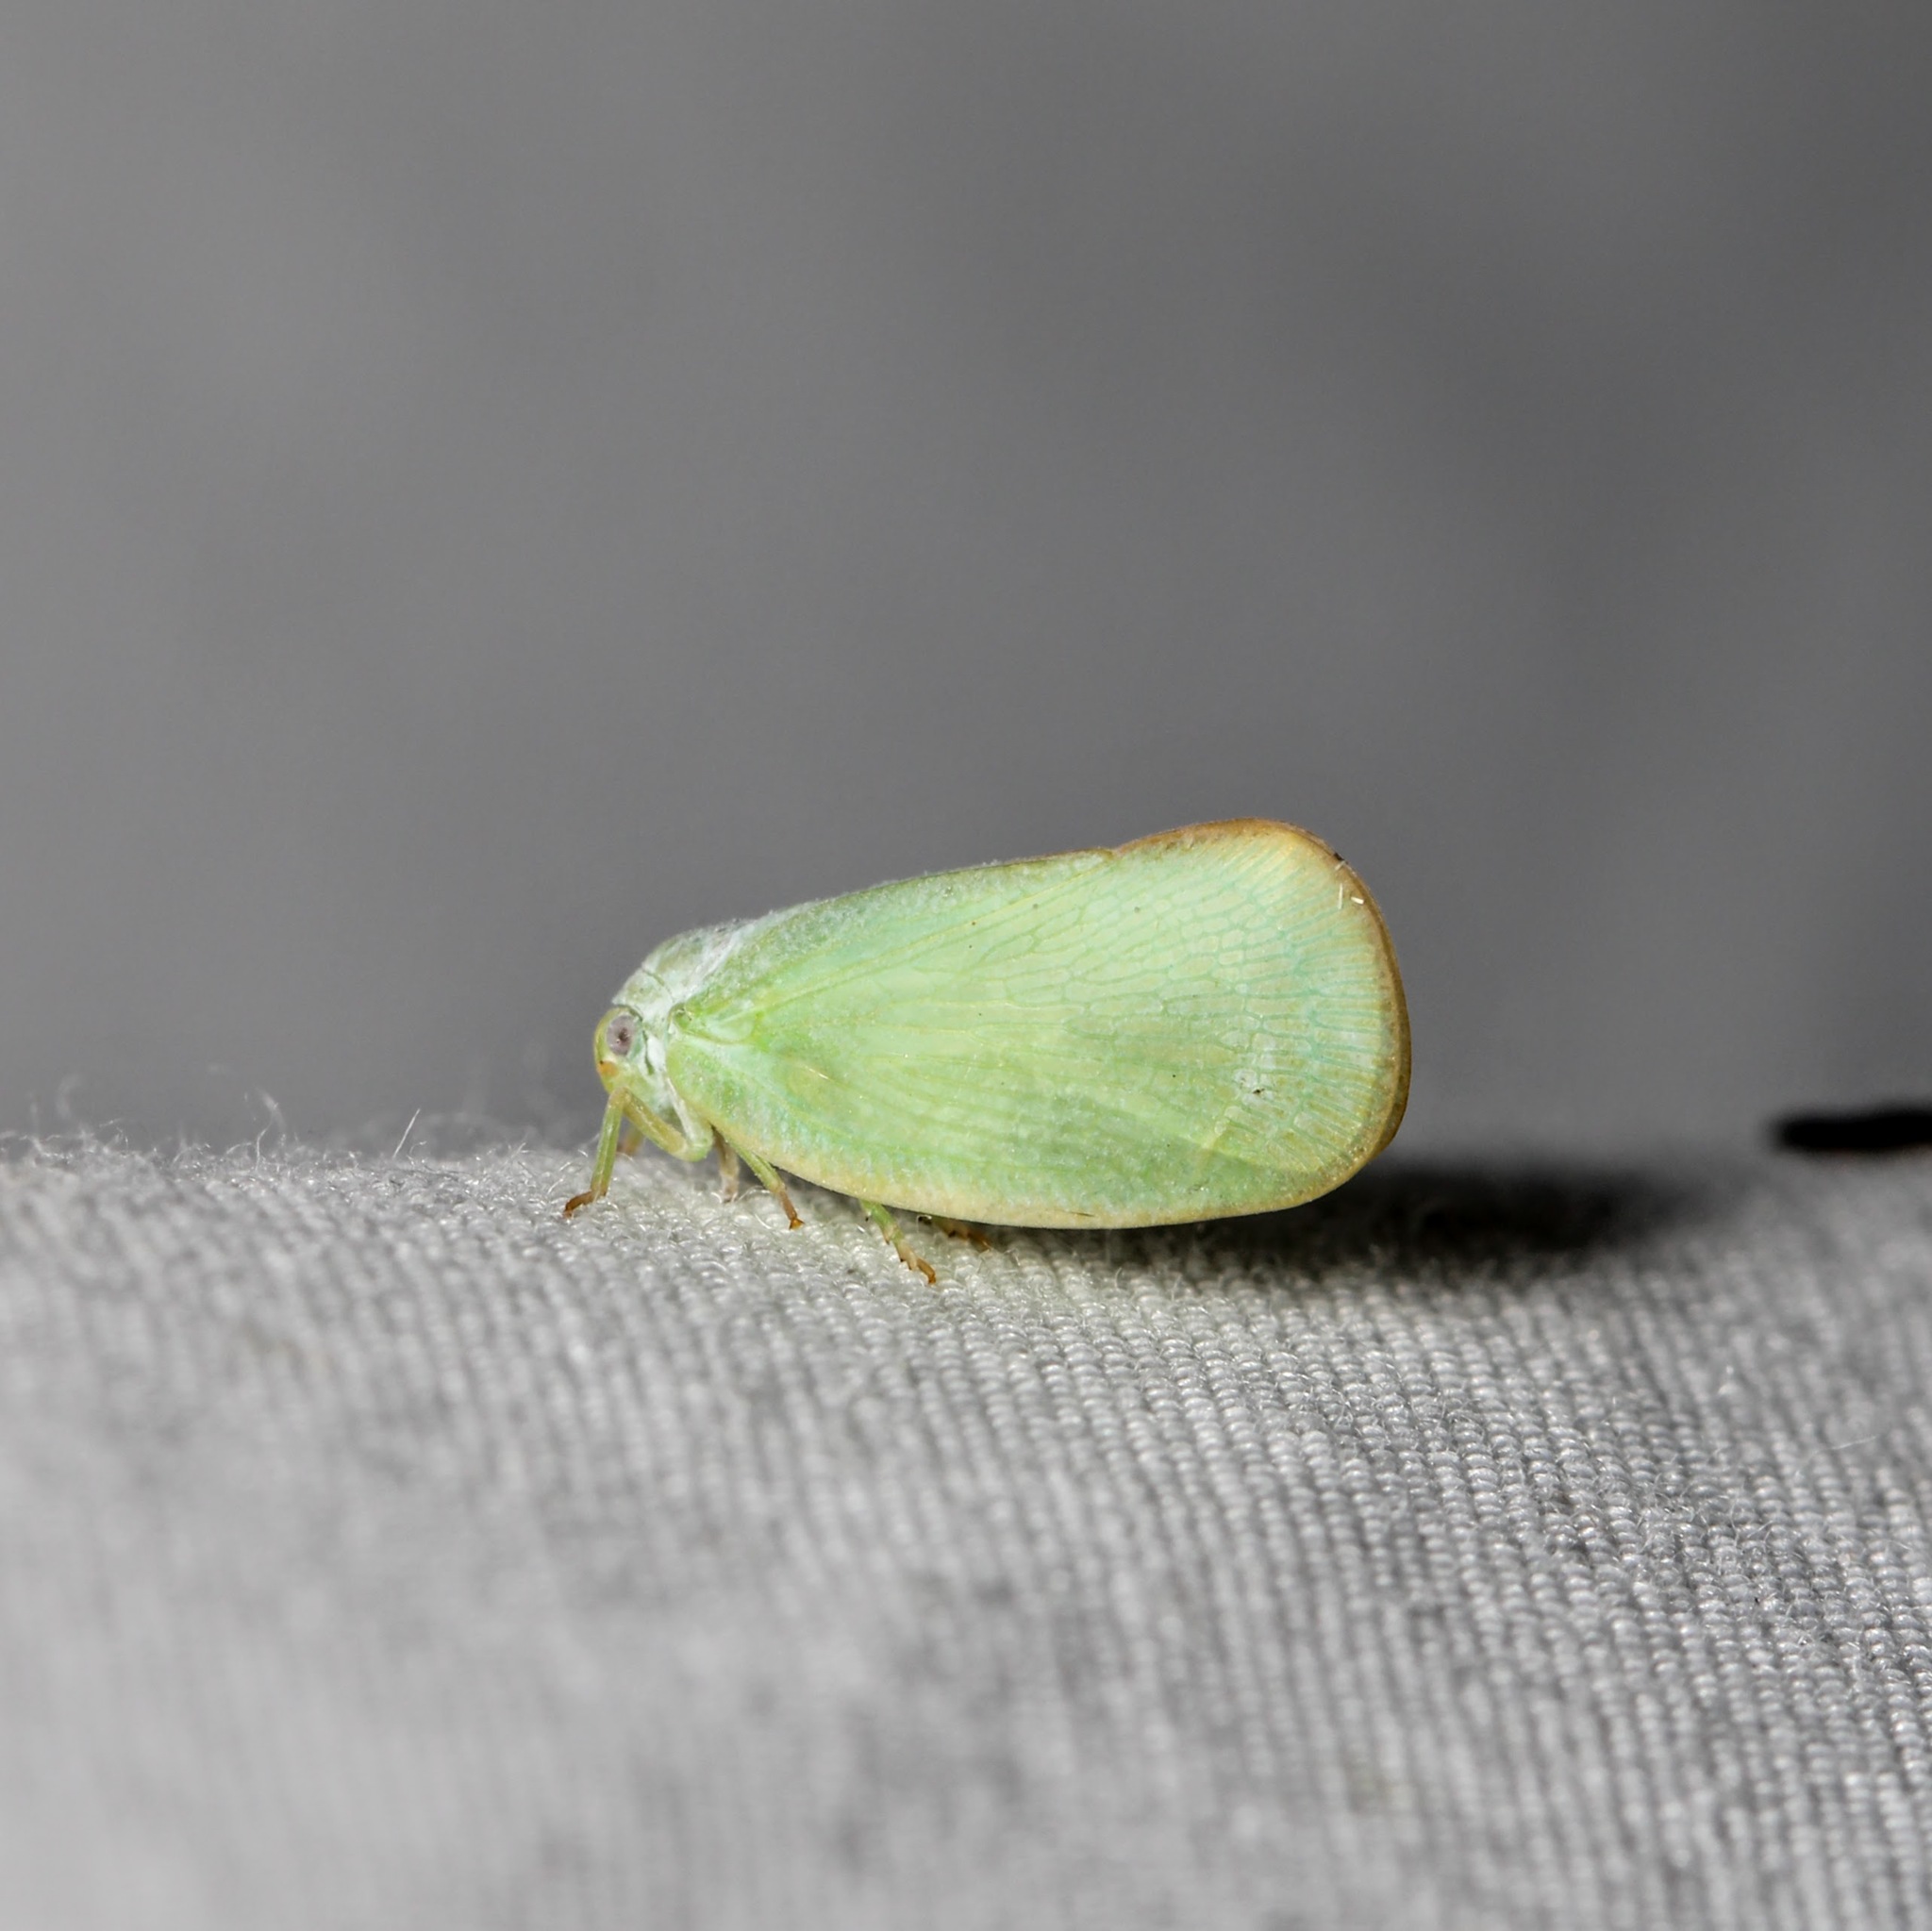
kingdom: Animalia
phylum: Arthropoda
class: Insecta
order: Hemiptera
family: Flatidae
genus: Ormenoides
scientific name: Ormenoides venusta
